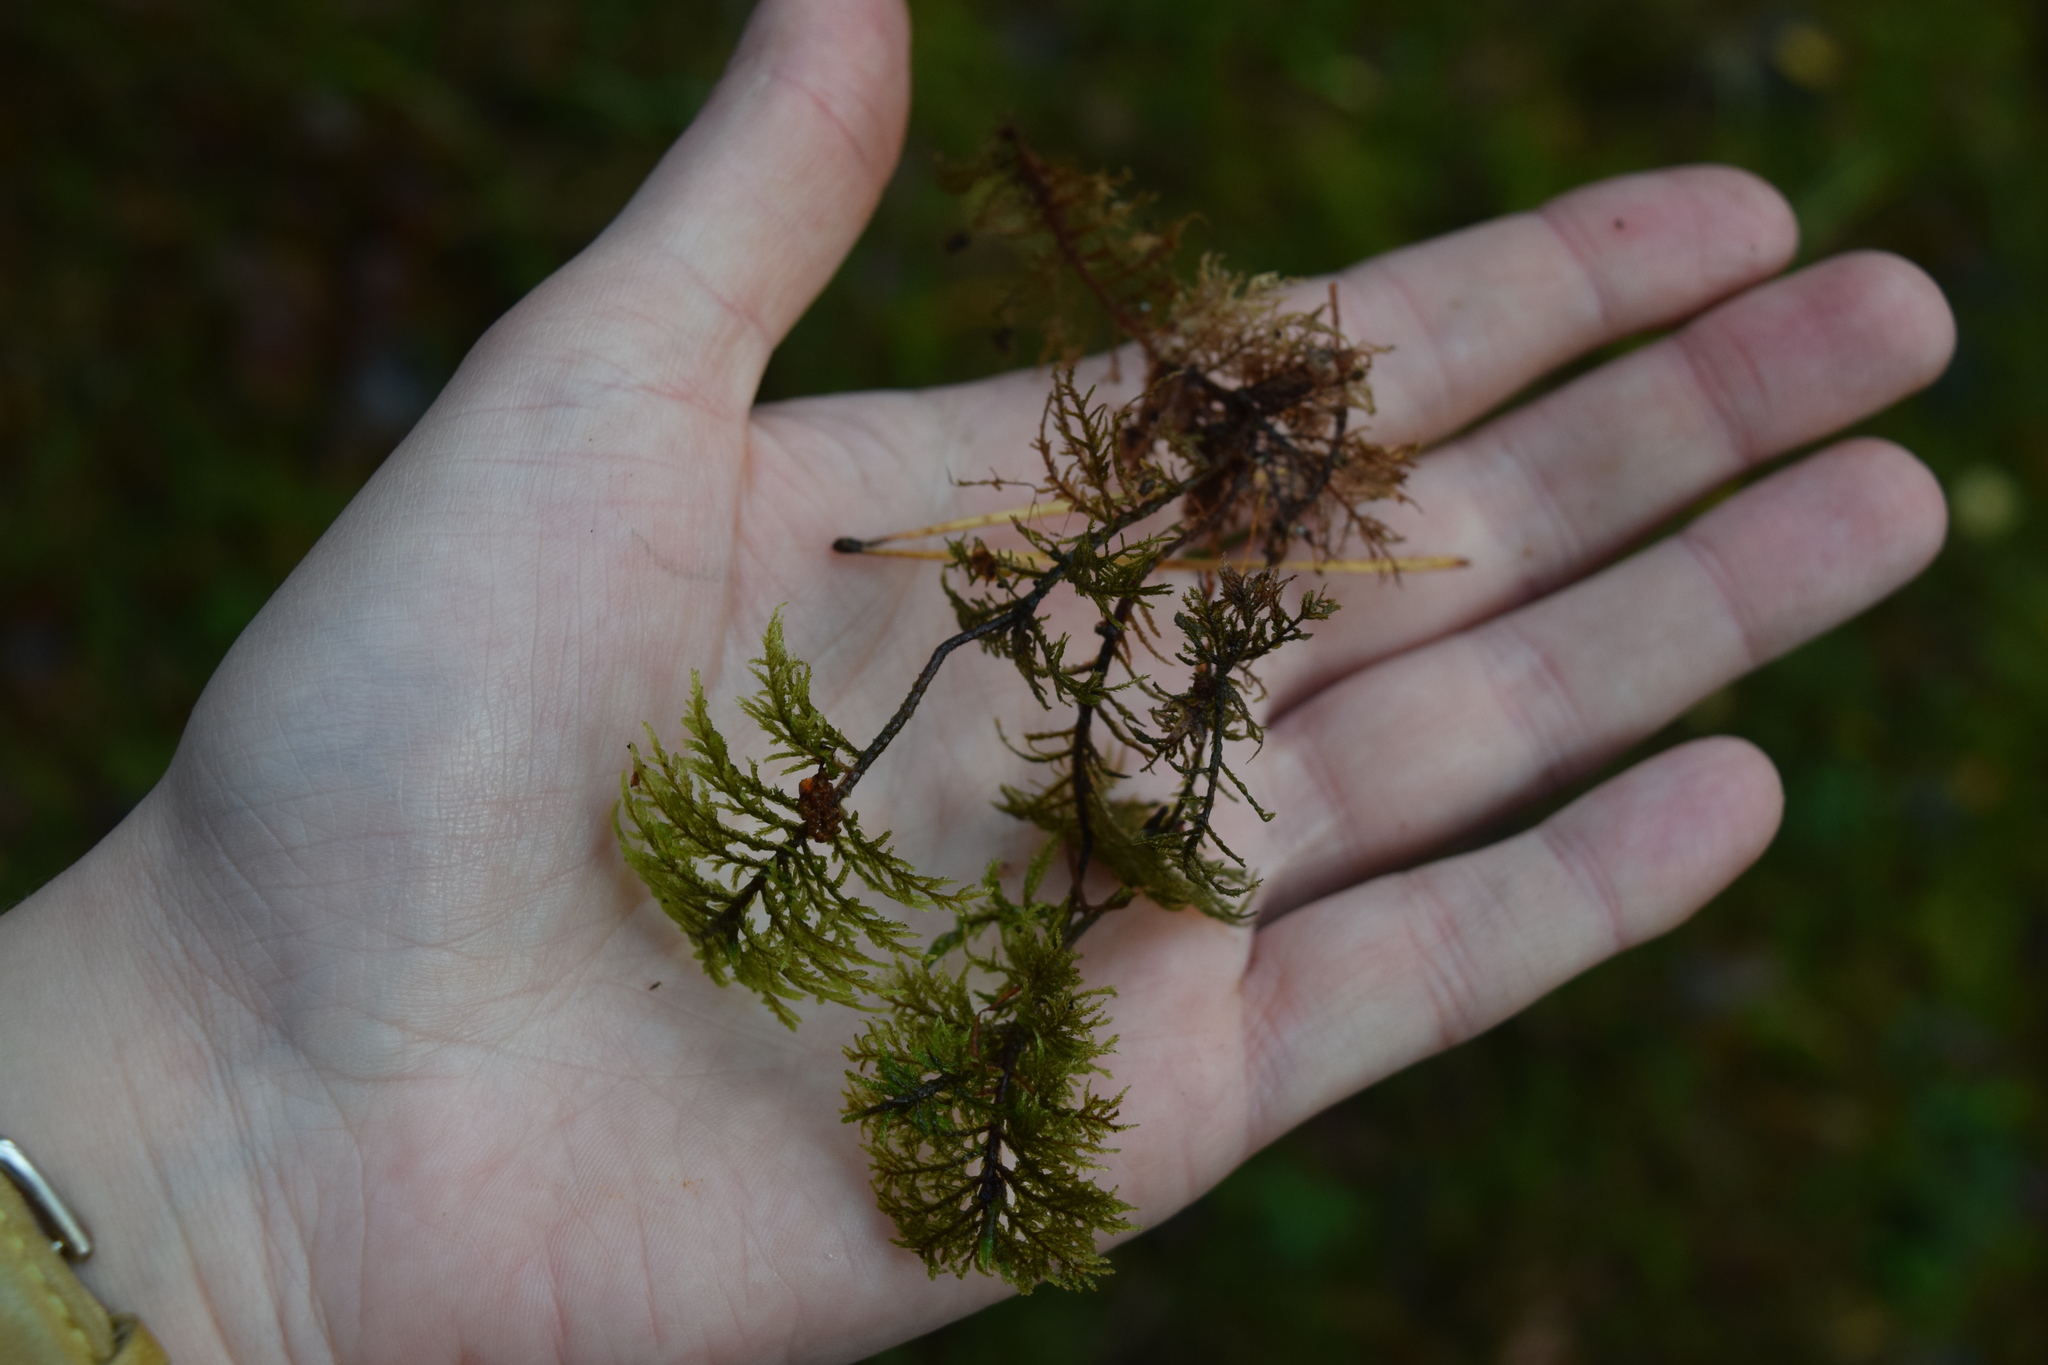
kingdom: Plantae
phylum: Bryophyta
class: Bryopsida
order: Hypnales
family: Hylocomiaceae
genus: Hylocomium
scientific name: Hylocomium splendens
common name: Stairstep moss
